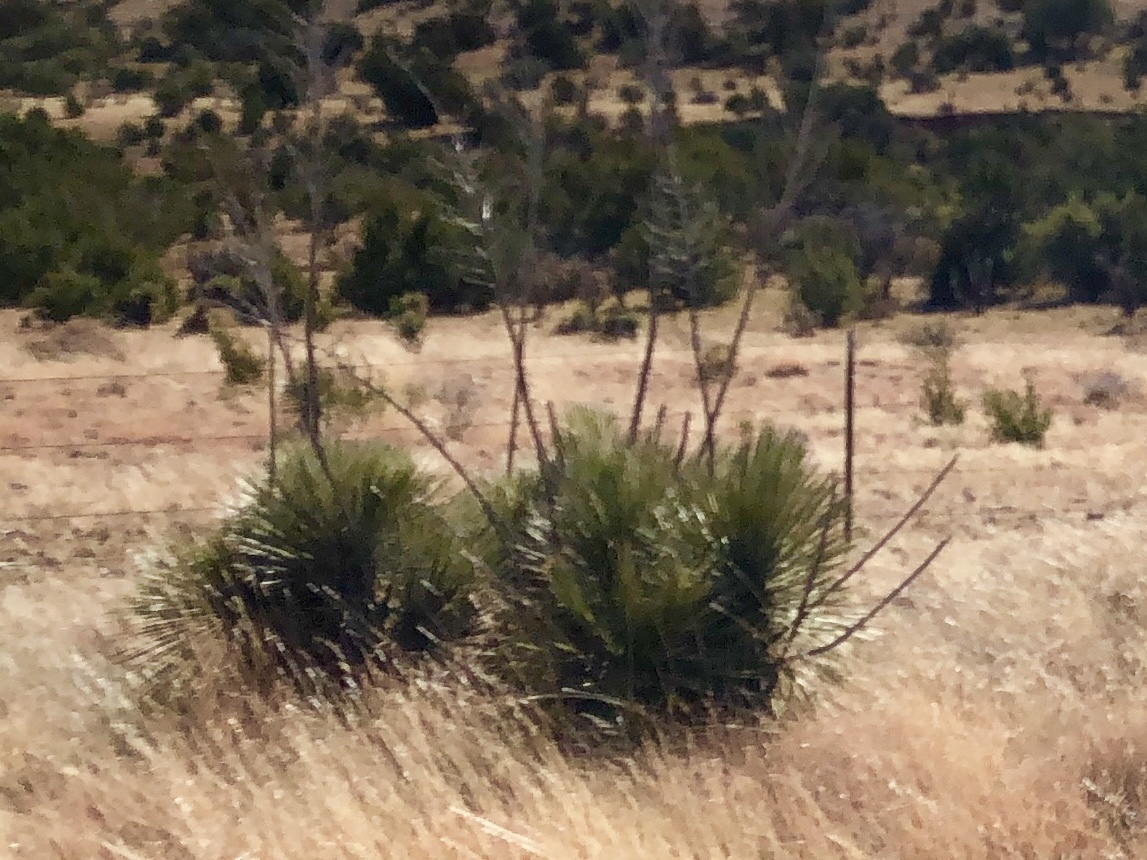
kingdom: Plantae
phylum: Tracheophyta
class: Liliopsida
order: Asparagales
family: Asparagaceae
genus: Yucca
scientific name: Yucca elata
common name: Palmella
